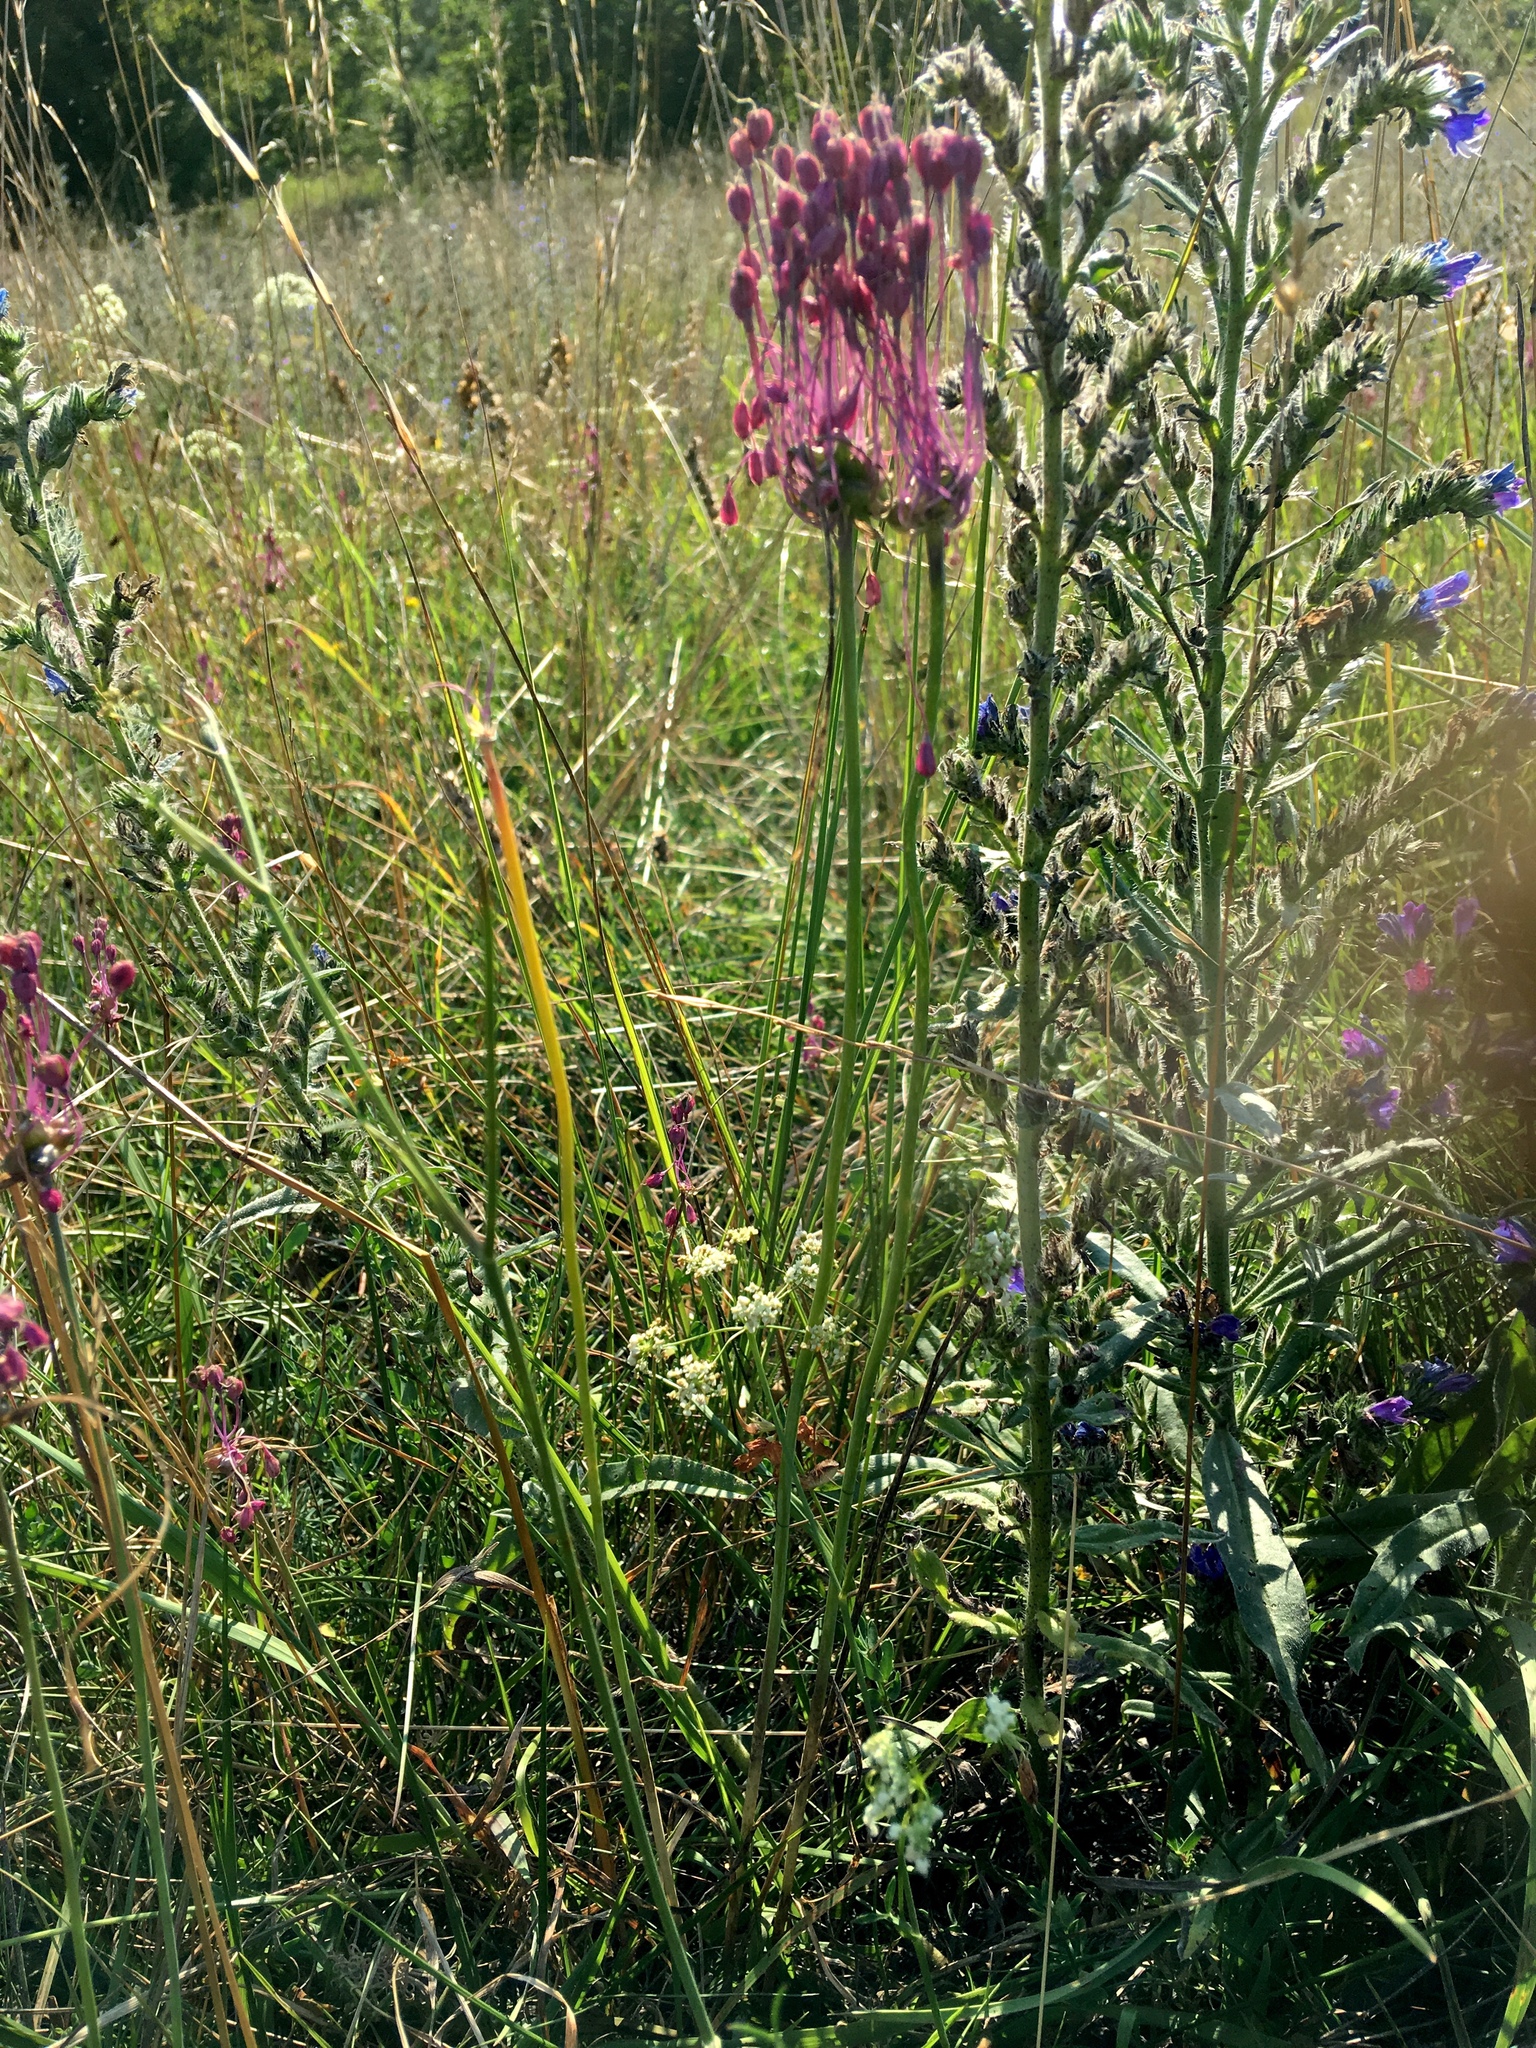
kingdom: Plantae
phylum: Tracheophyta
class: Liliopsida
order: Asparagales
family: Amaryllidaceae
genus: Allium
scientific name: Allium vineale
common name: Crow garlic
